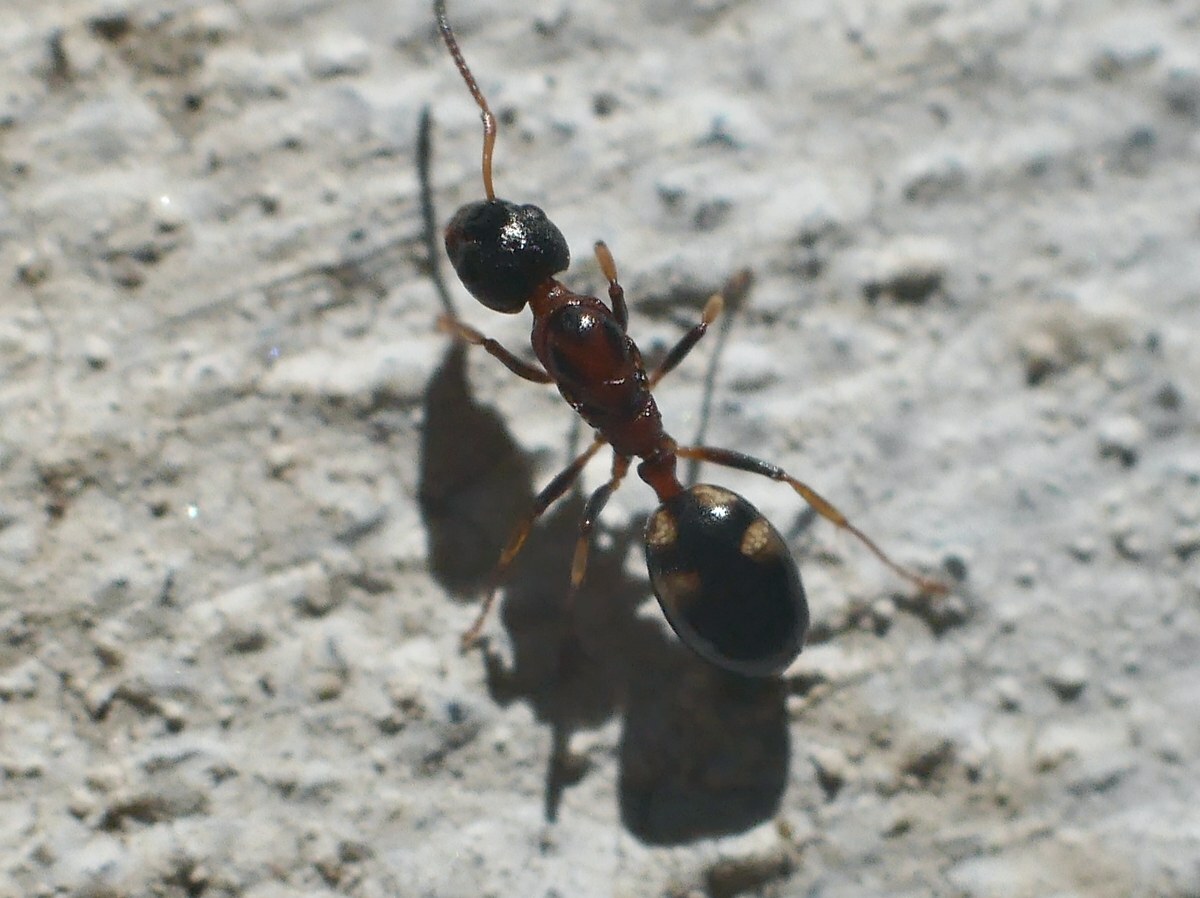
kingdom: Animalia
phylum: Arthropoda
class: Insecta
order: Hymenoptera
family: Formicidae
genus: Dolichoderus
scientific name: Dolichoderus quadripunctatus
